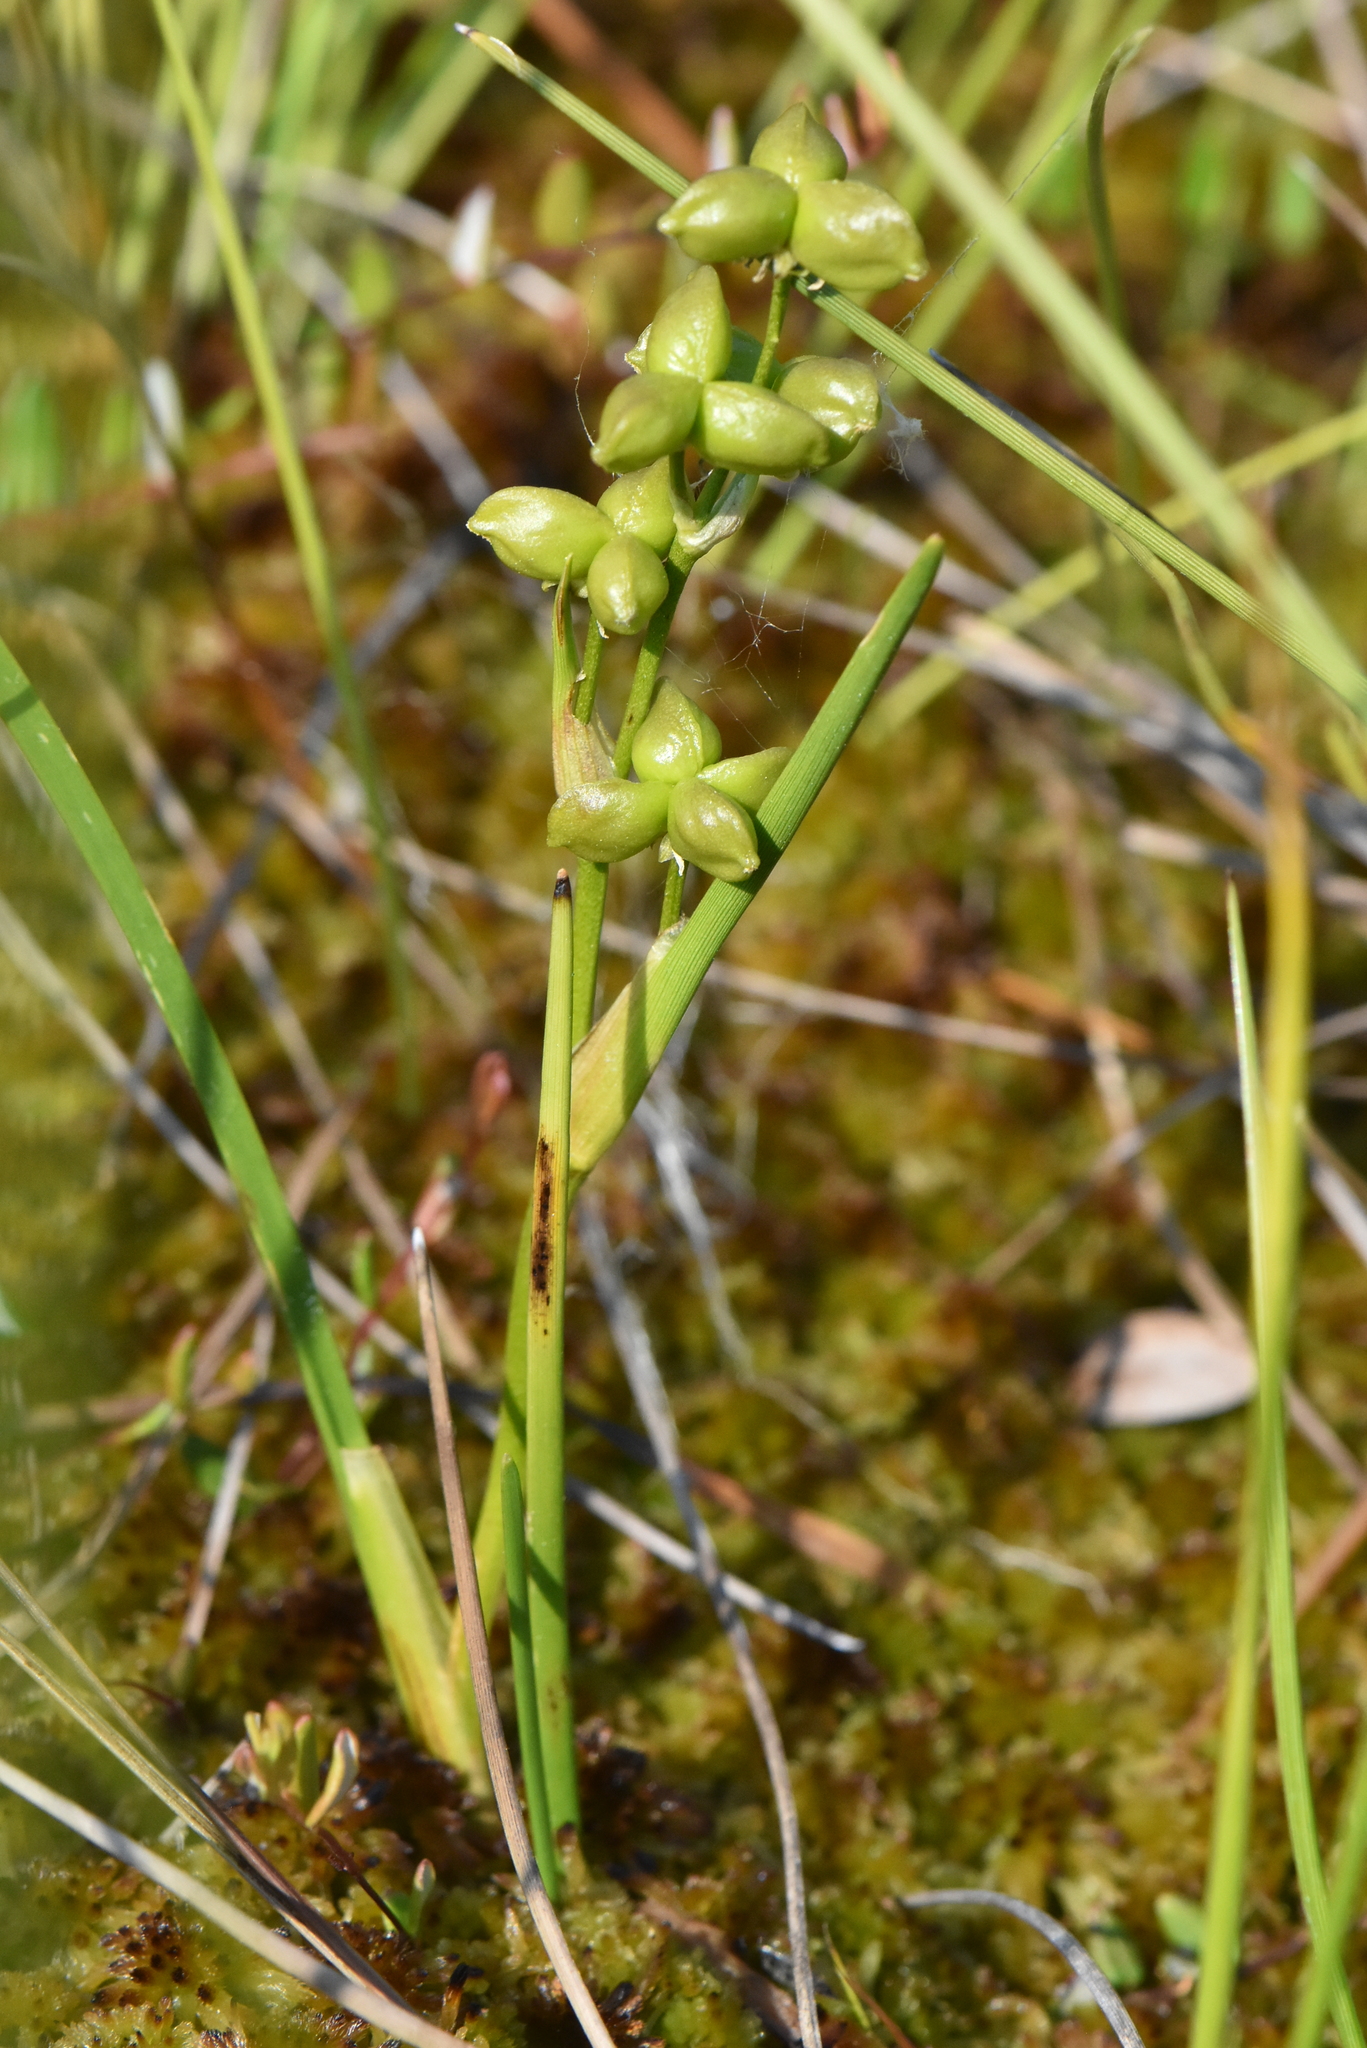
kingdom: Plantae
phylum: Tracheophyta
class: Liliopsida
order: Alismatales
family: Scheuchzeriaceae
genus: Scheuchzeria
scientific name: Scheuchzeria palustris
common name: Rannoch-rush
